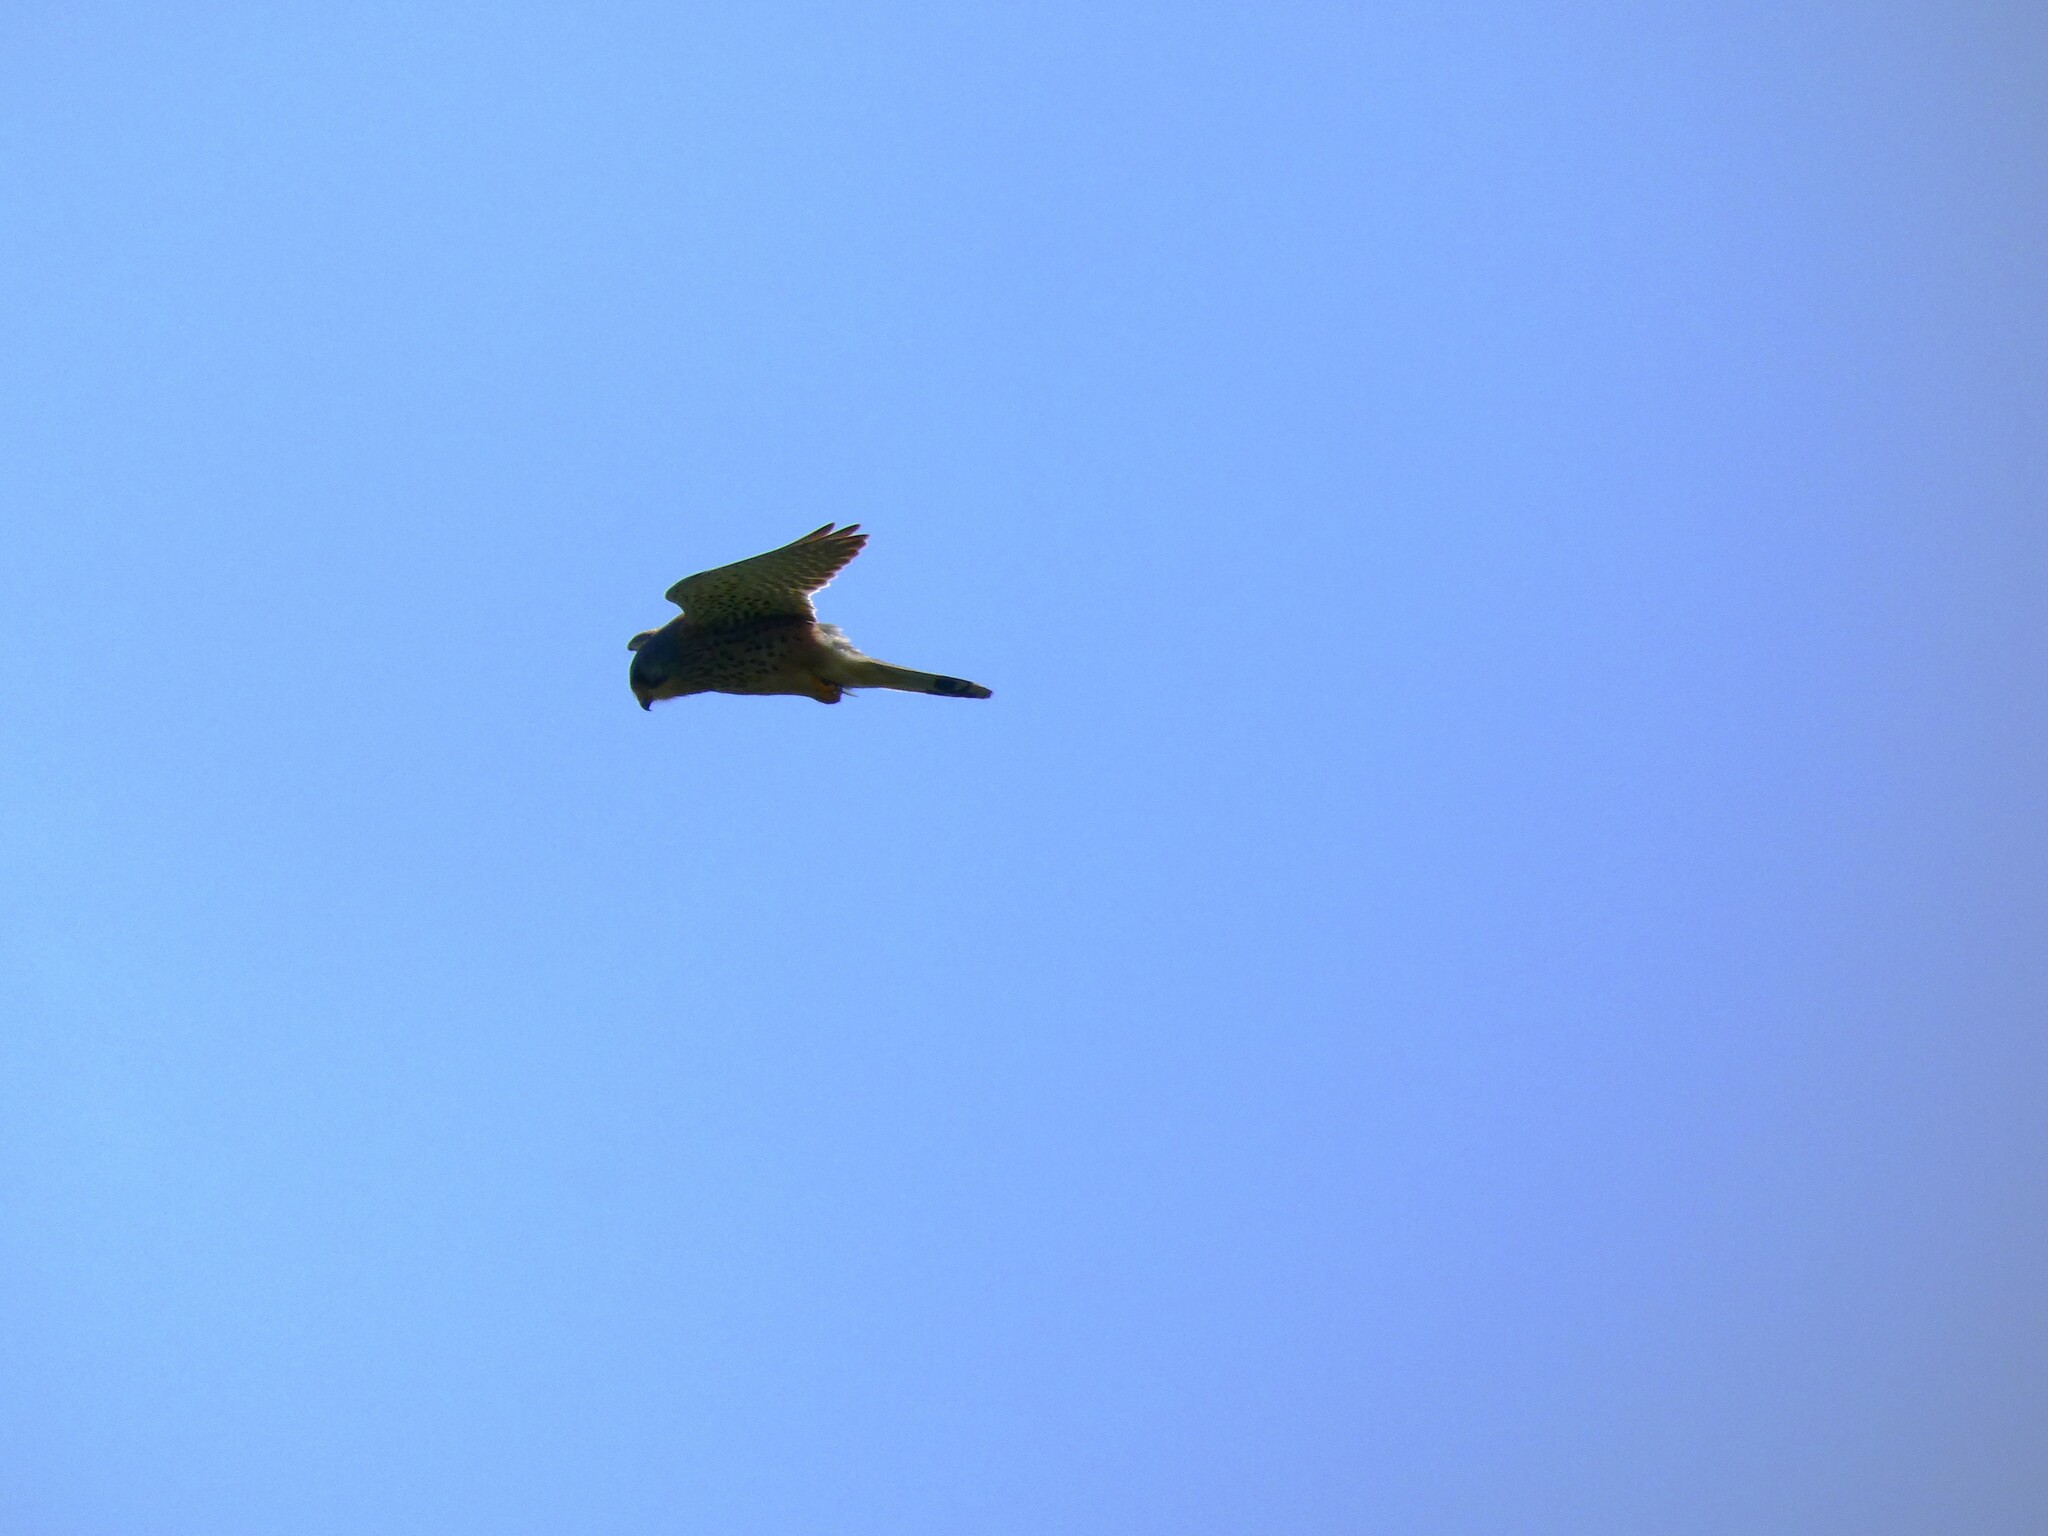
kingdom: Animalia
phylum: Chordata
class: Aves
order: Falconiformes
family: Falconidae
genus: Falco
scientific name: Falco tinnunculus
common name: Common kestrel
